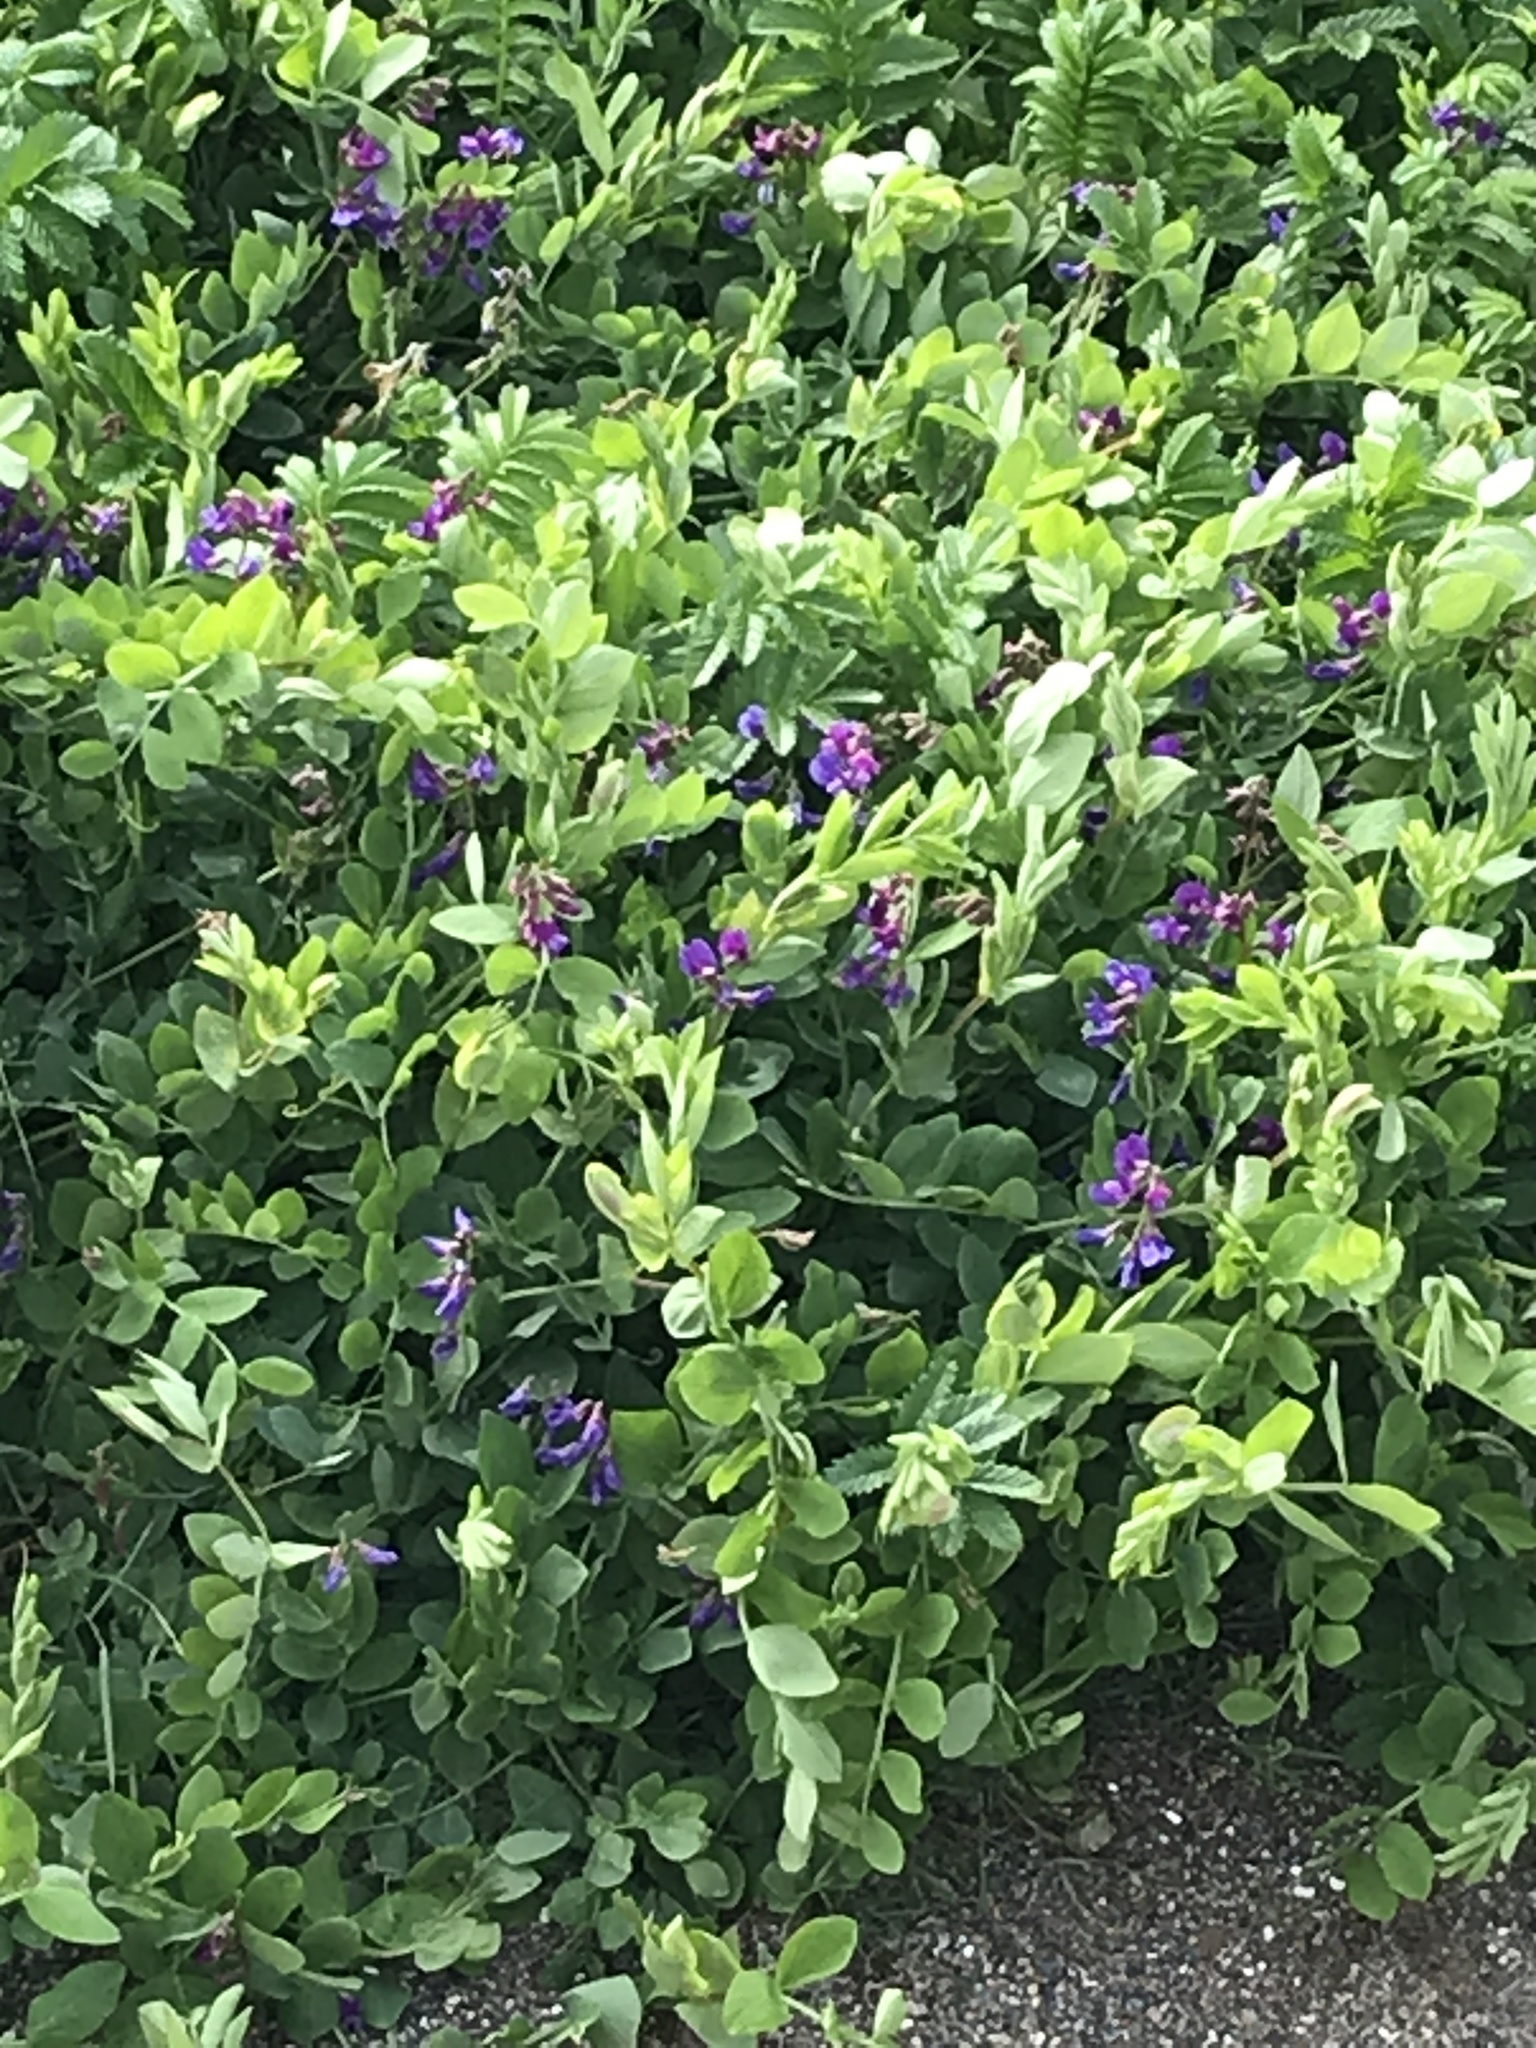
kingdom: Plantae
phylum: Tracheophyta
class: Magnoliopsida
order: Fabales
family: Fabaceae
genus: Lathyrus
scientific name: Lathyrus japonicus
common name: Sea pea
